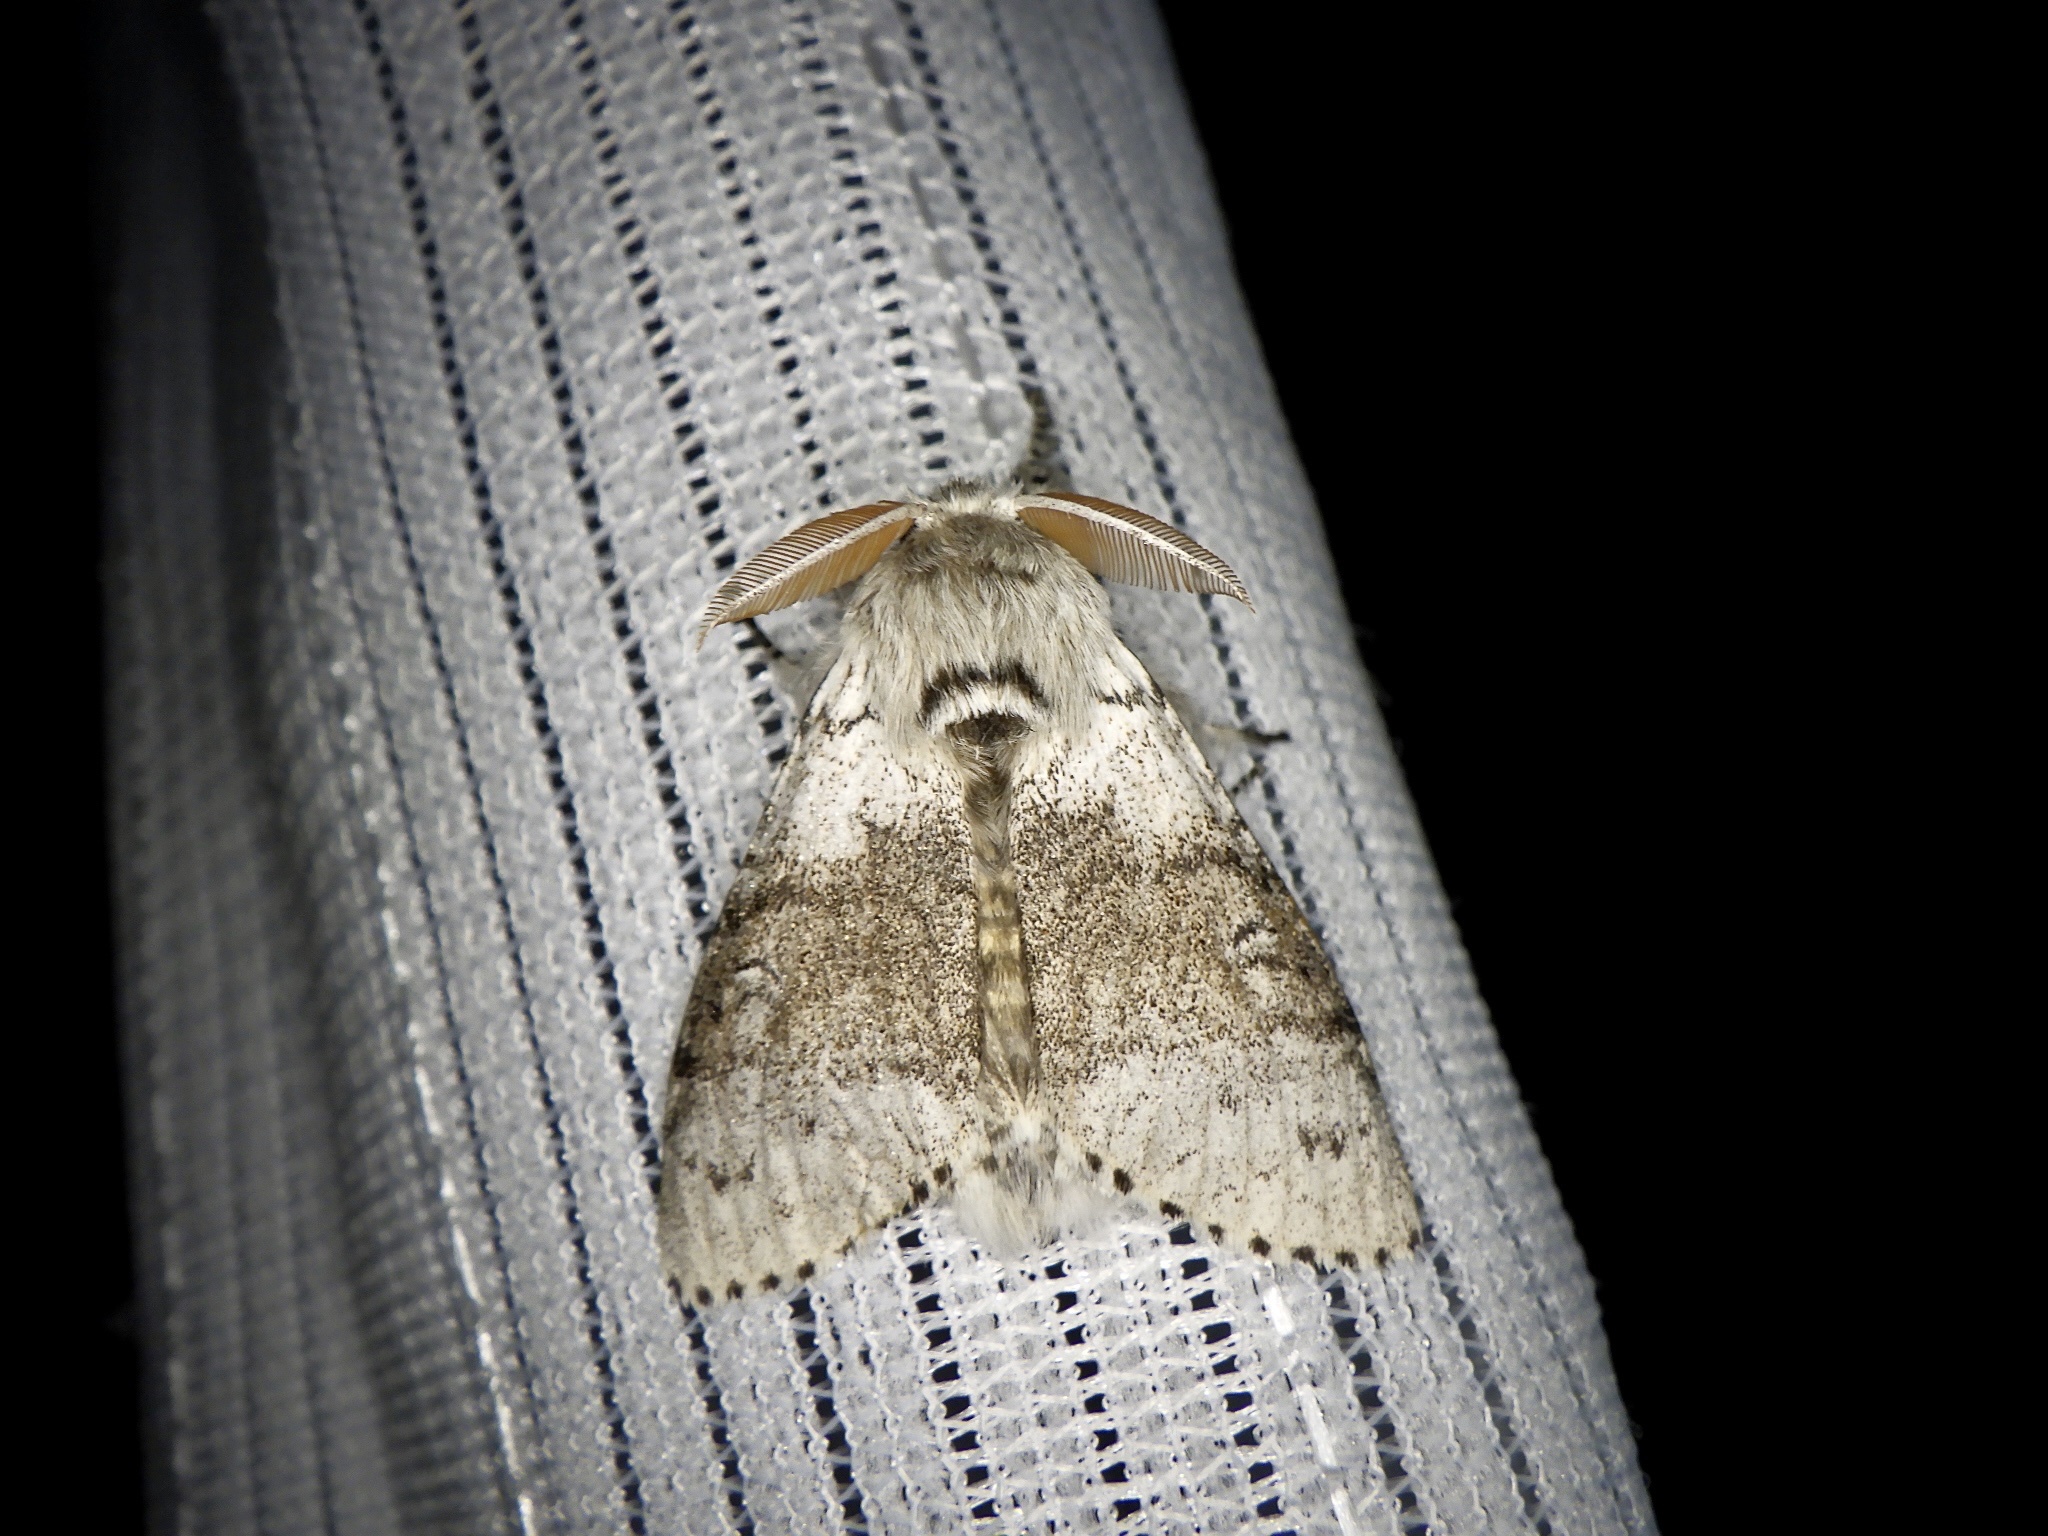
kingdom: Animalia
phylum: Arthropoda
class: Insecta
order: Lepidoptera
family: Erebidae
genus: Calliteara
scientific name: Calliteara
